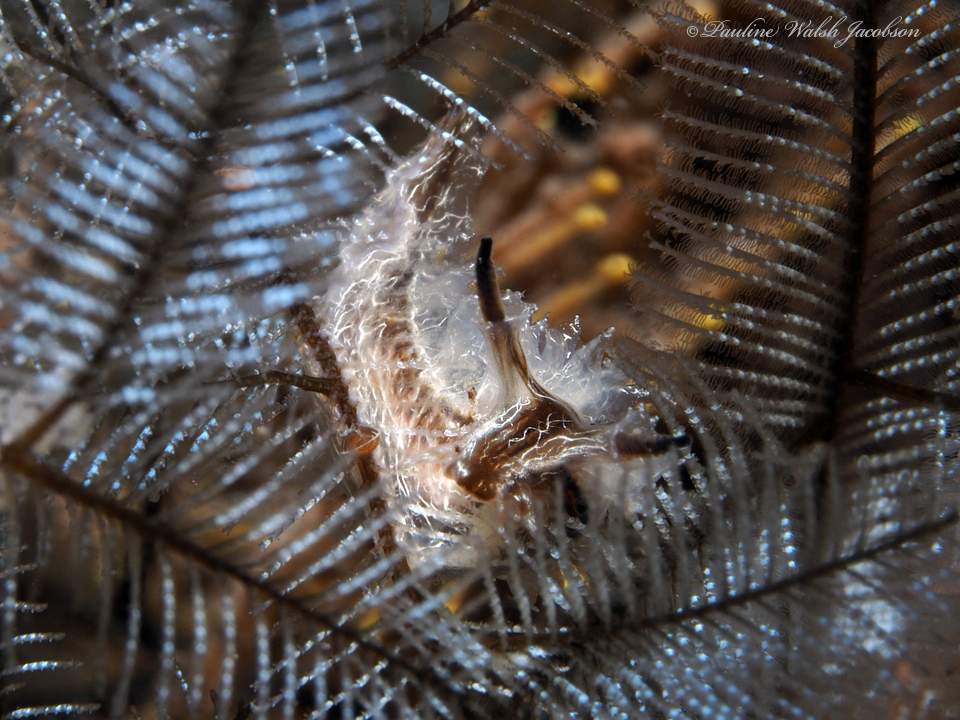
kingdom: Animalia
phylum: Mollusca
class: Gastropoda
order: Nudibranchia
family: Lomanotidae
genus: Lomanotus
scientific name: Lomanotus vermiformis
